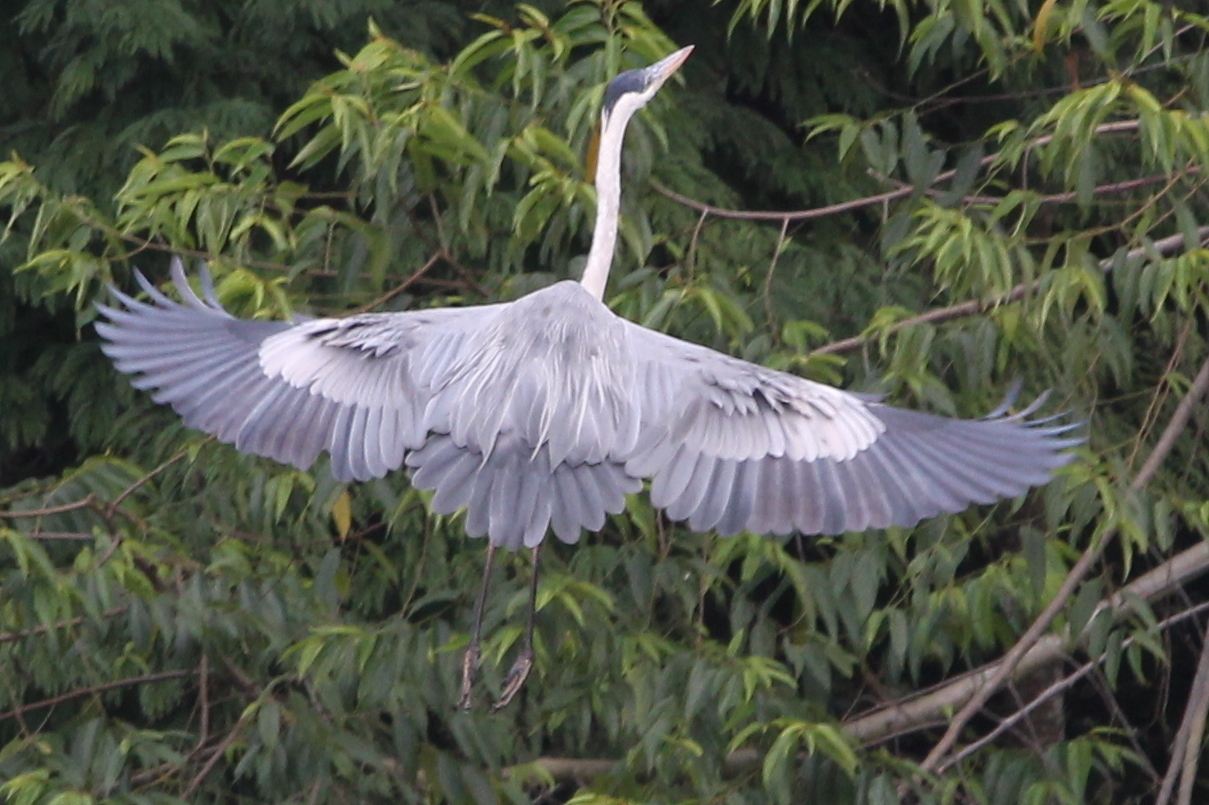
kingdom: Animalia
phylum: Chordata
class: Aves
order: Pelecaniformes
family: Ardeidae
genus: Ardea
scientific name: Ardea cocoi
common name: Cocoi heron
